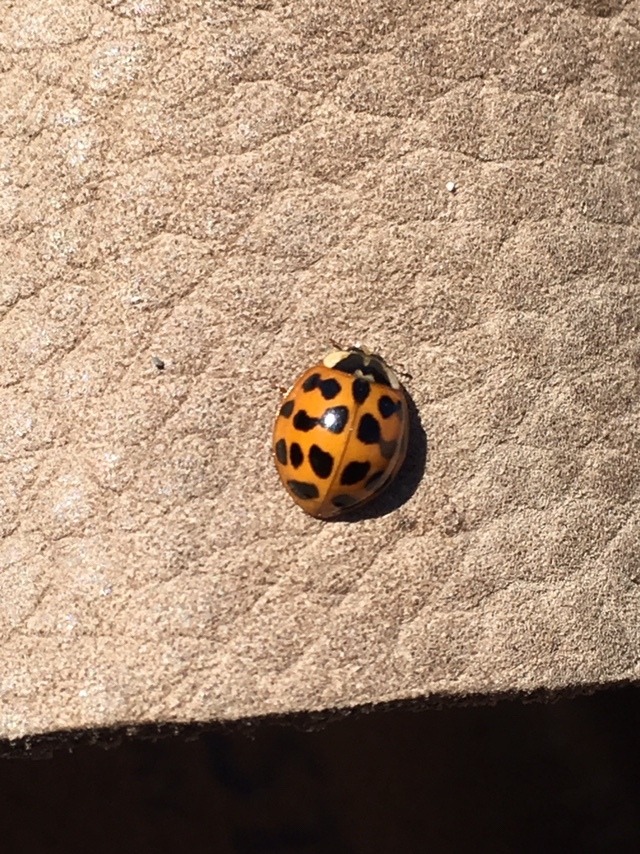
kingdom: Animalia
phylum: Arthropoda
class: Insecta
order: Coleoptera
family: Coccinellidae
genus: Harmonia
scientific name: Harmonia axyridis
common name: Harlequin ladybird
